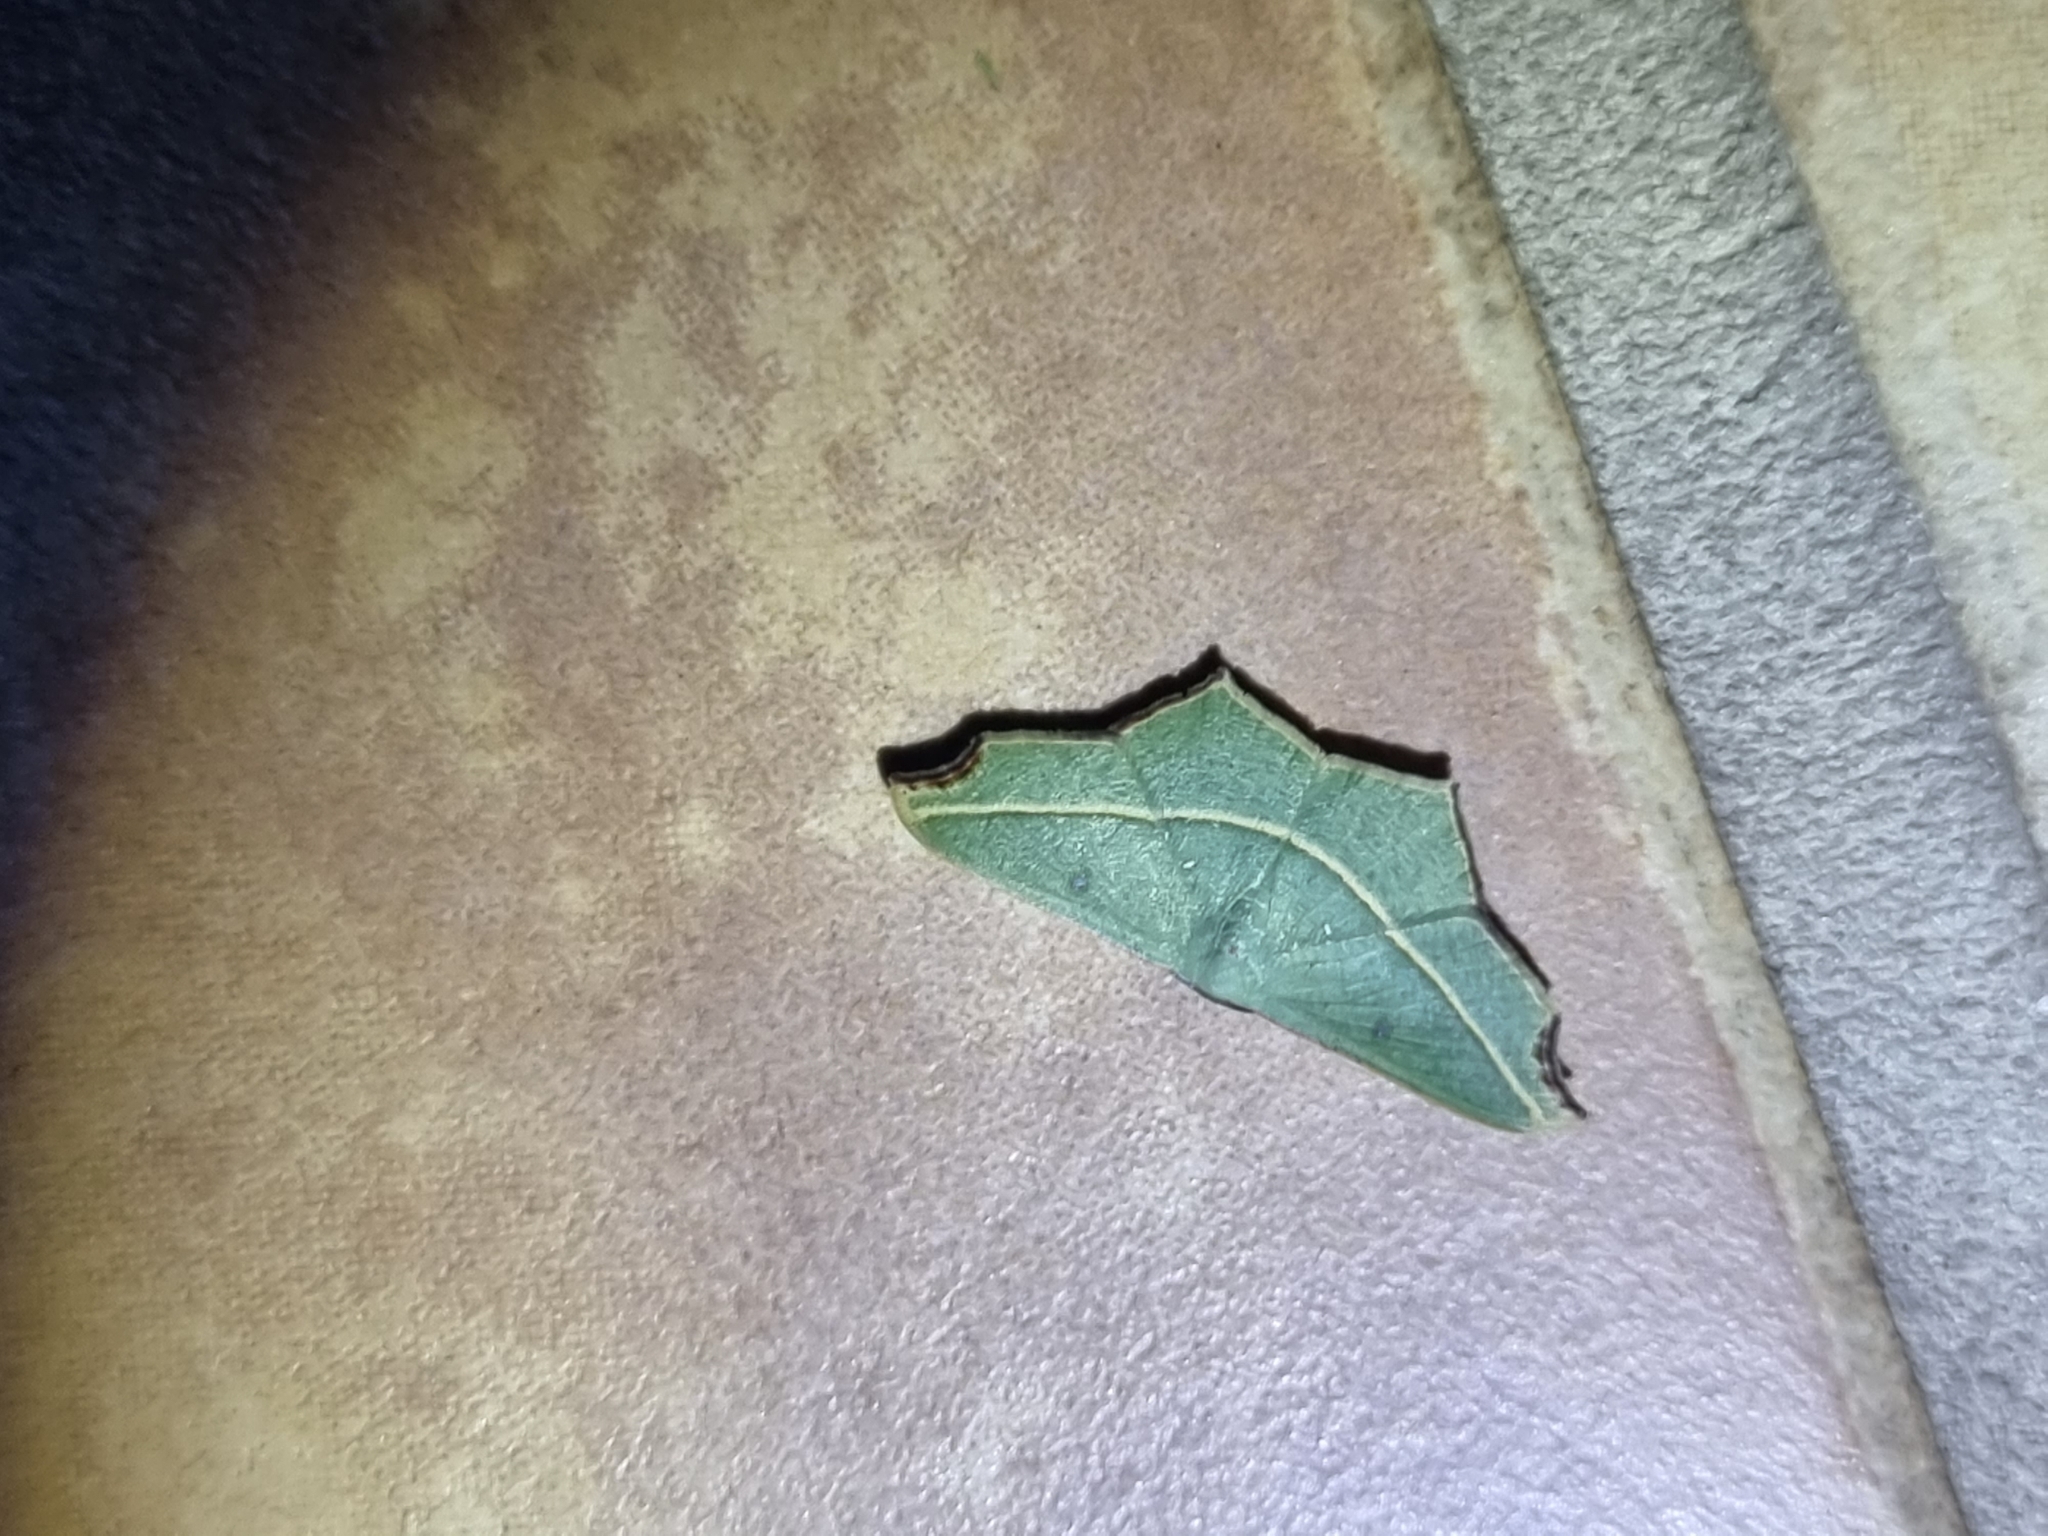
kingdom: Animalia
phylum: Arthropoda
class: Insecta
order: Lepidoptera
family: Geometridae
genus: Traminda
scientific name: Traminda aventiaria
